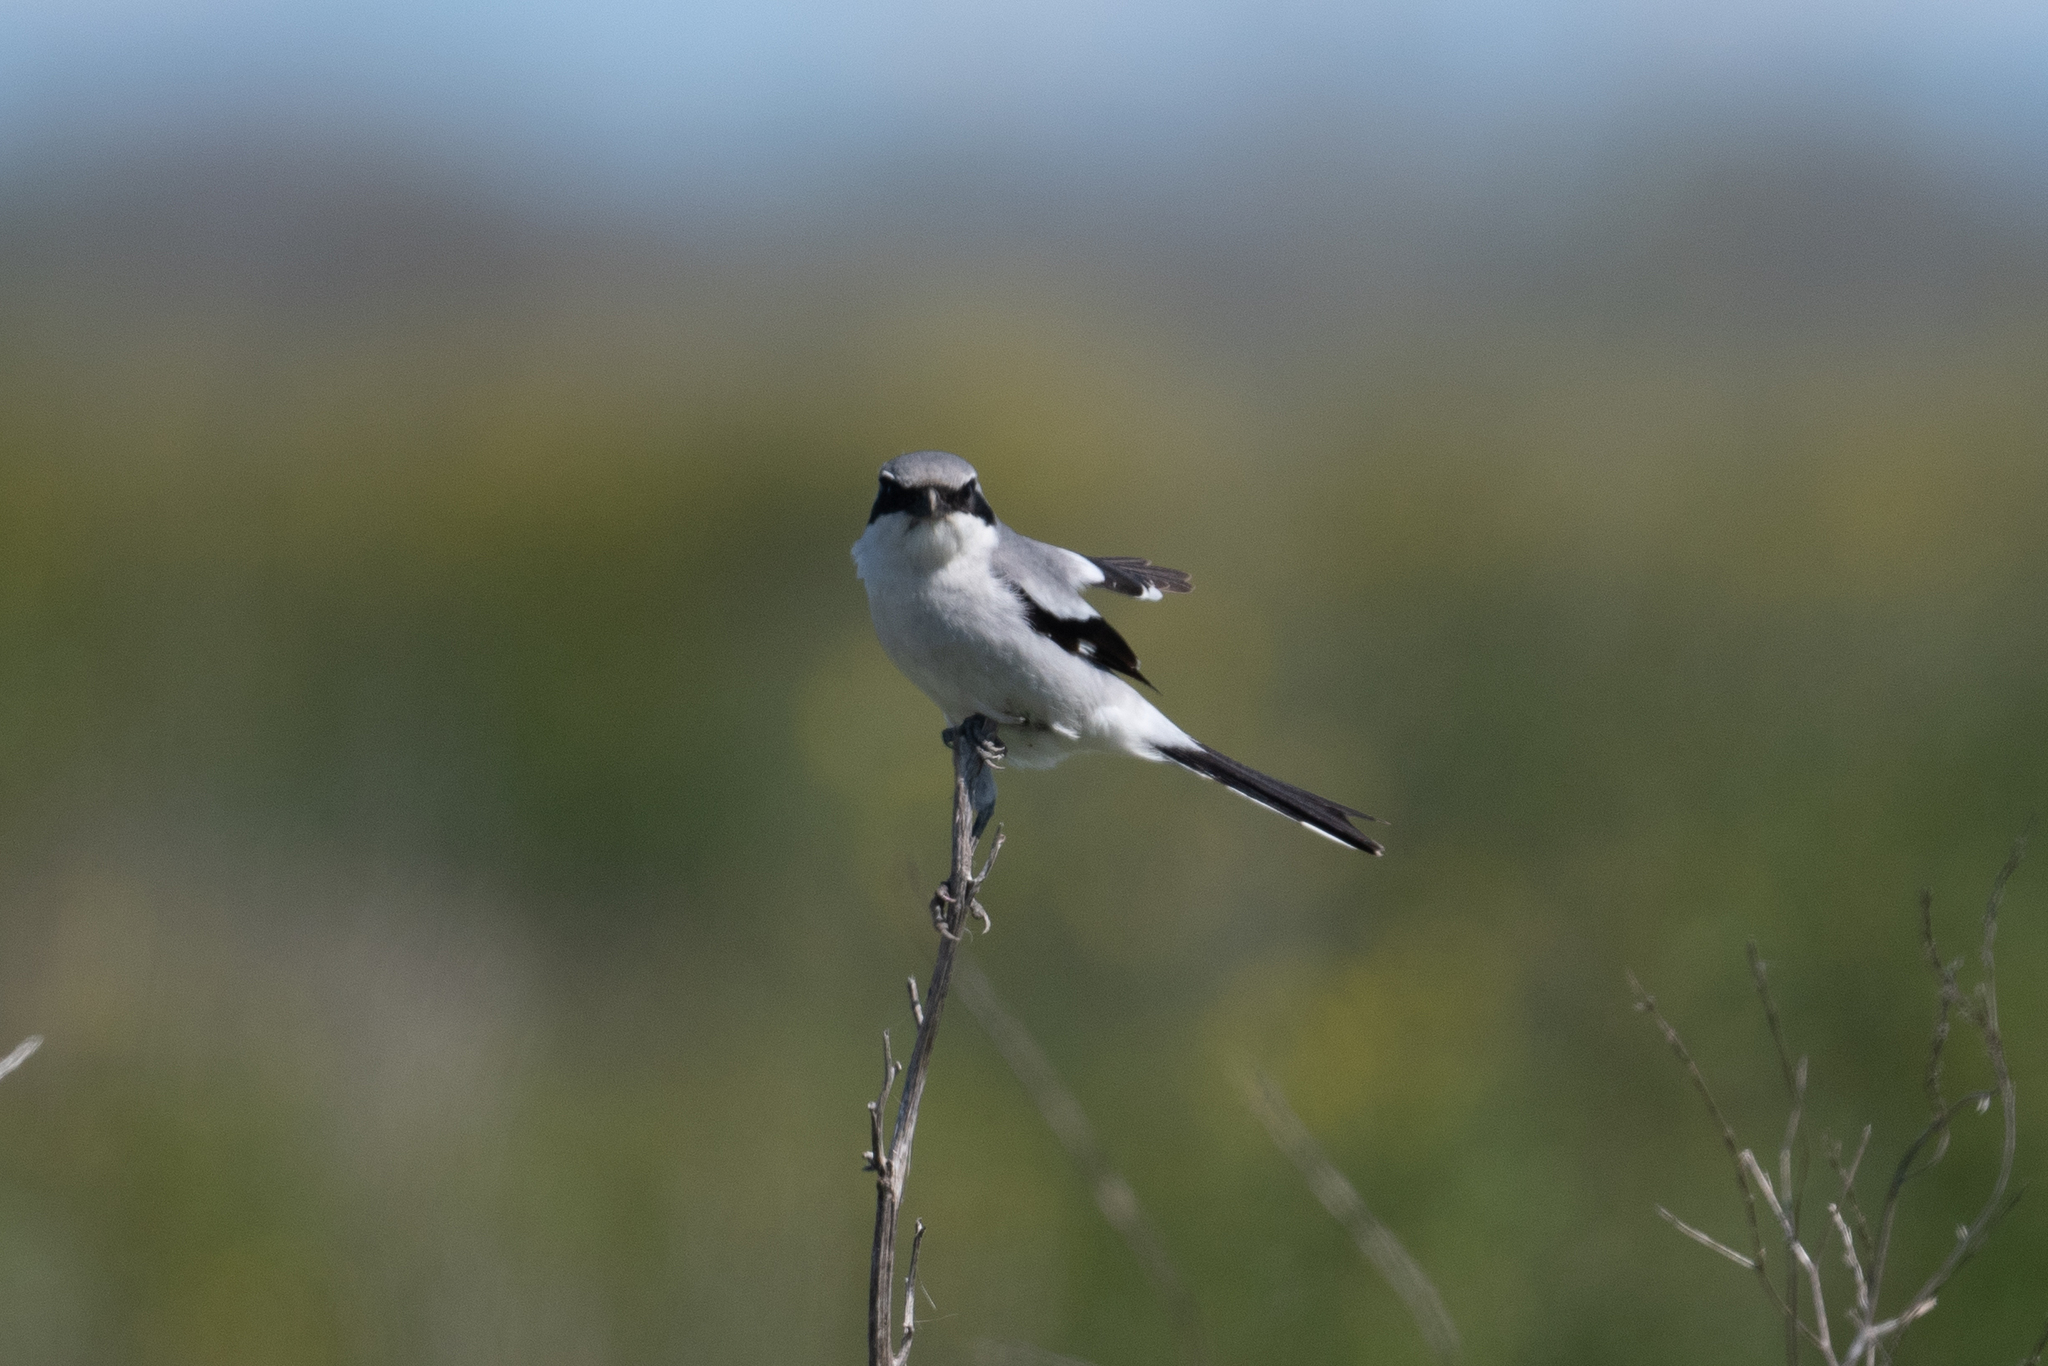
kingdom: Animalia
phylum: Chordata
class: Aves
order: Passeriformes
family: Laniidae
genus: Lanius
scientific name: Lanius ludovicianus
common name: Loggerhead shrike
